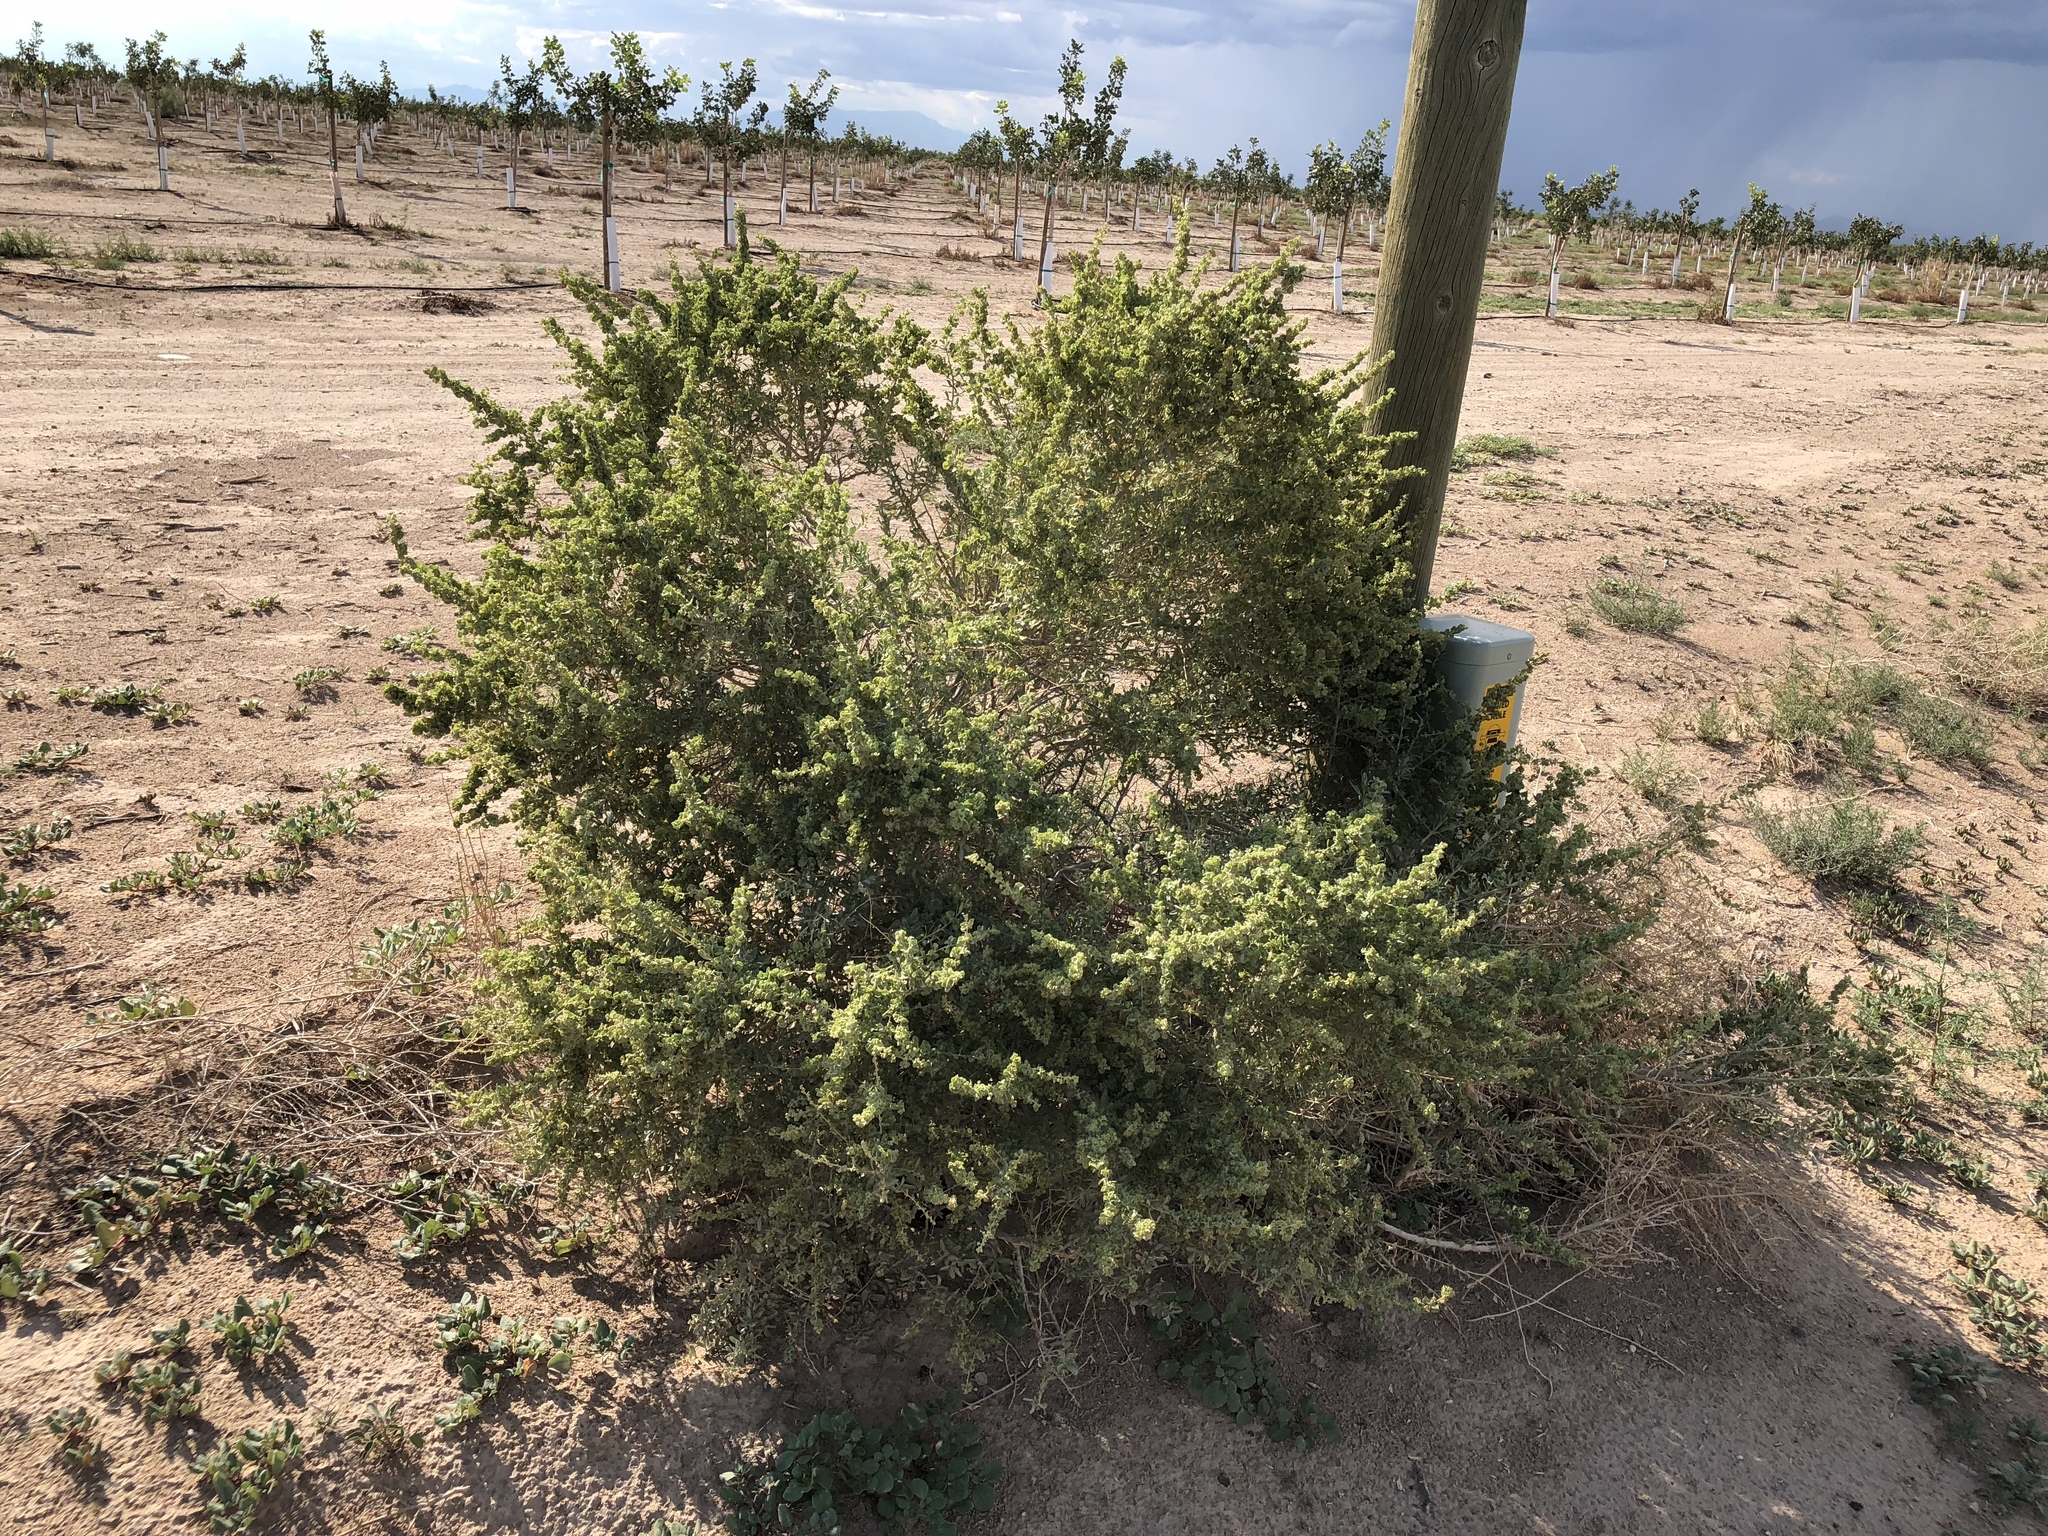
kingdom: Plantae
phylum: Tracheophyta
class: Magnoliopsida
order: Caryophyllales
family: Amaranthaceae
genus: Atriplex
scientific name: Atriplex canescens
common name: Four-wing saltbush
